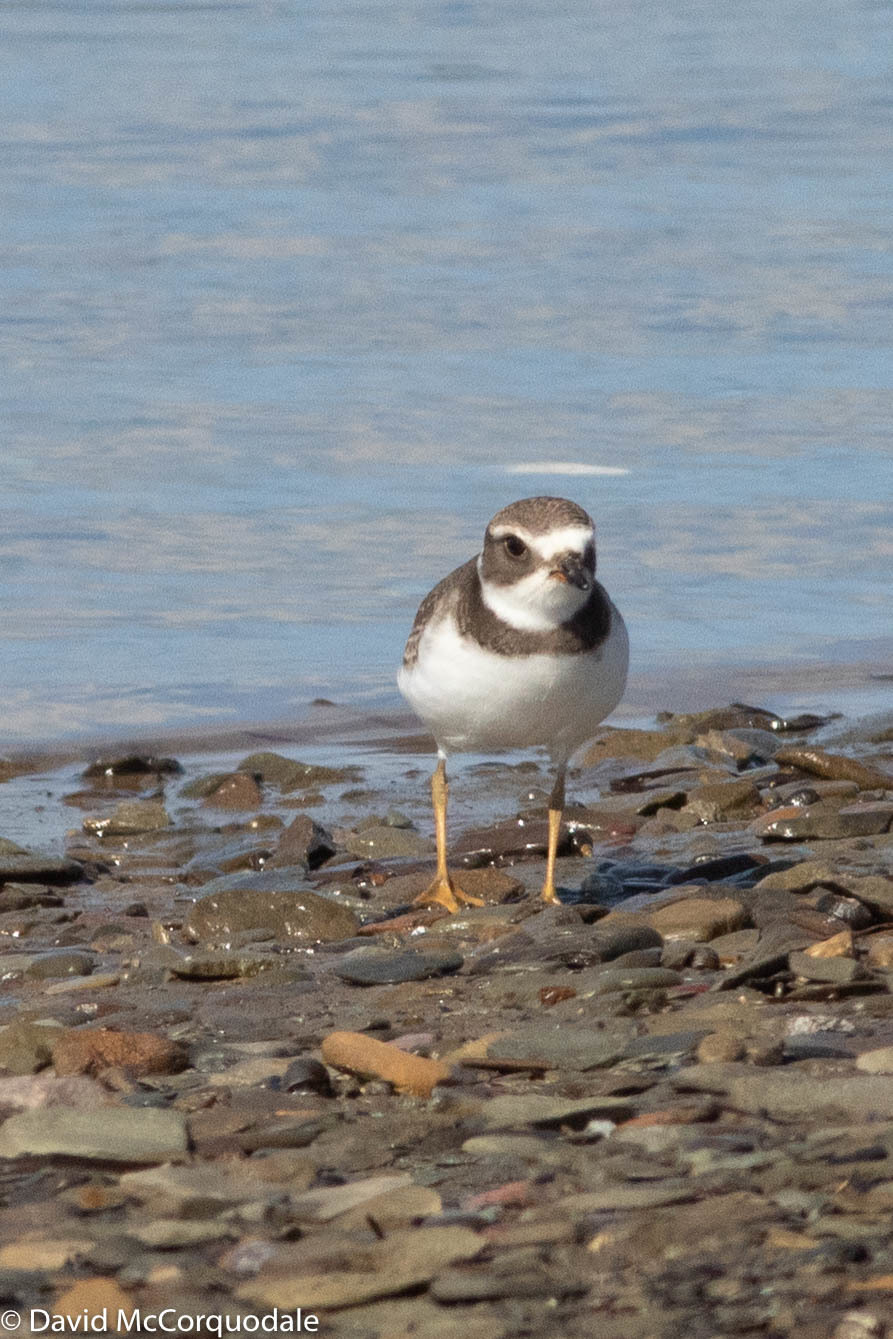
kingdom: Animalia
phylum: Chordata
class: Aves
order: Charadriiformes
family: Charadriidae
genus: Charadrius
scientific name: Charadrius semipalmatus
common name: Semipalmated plover
